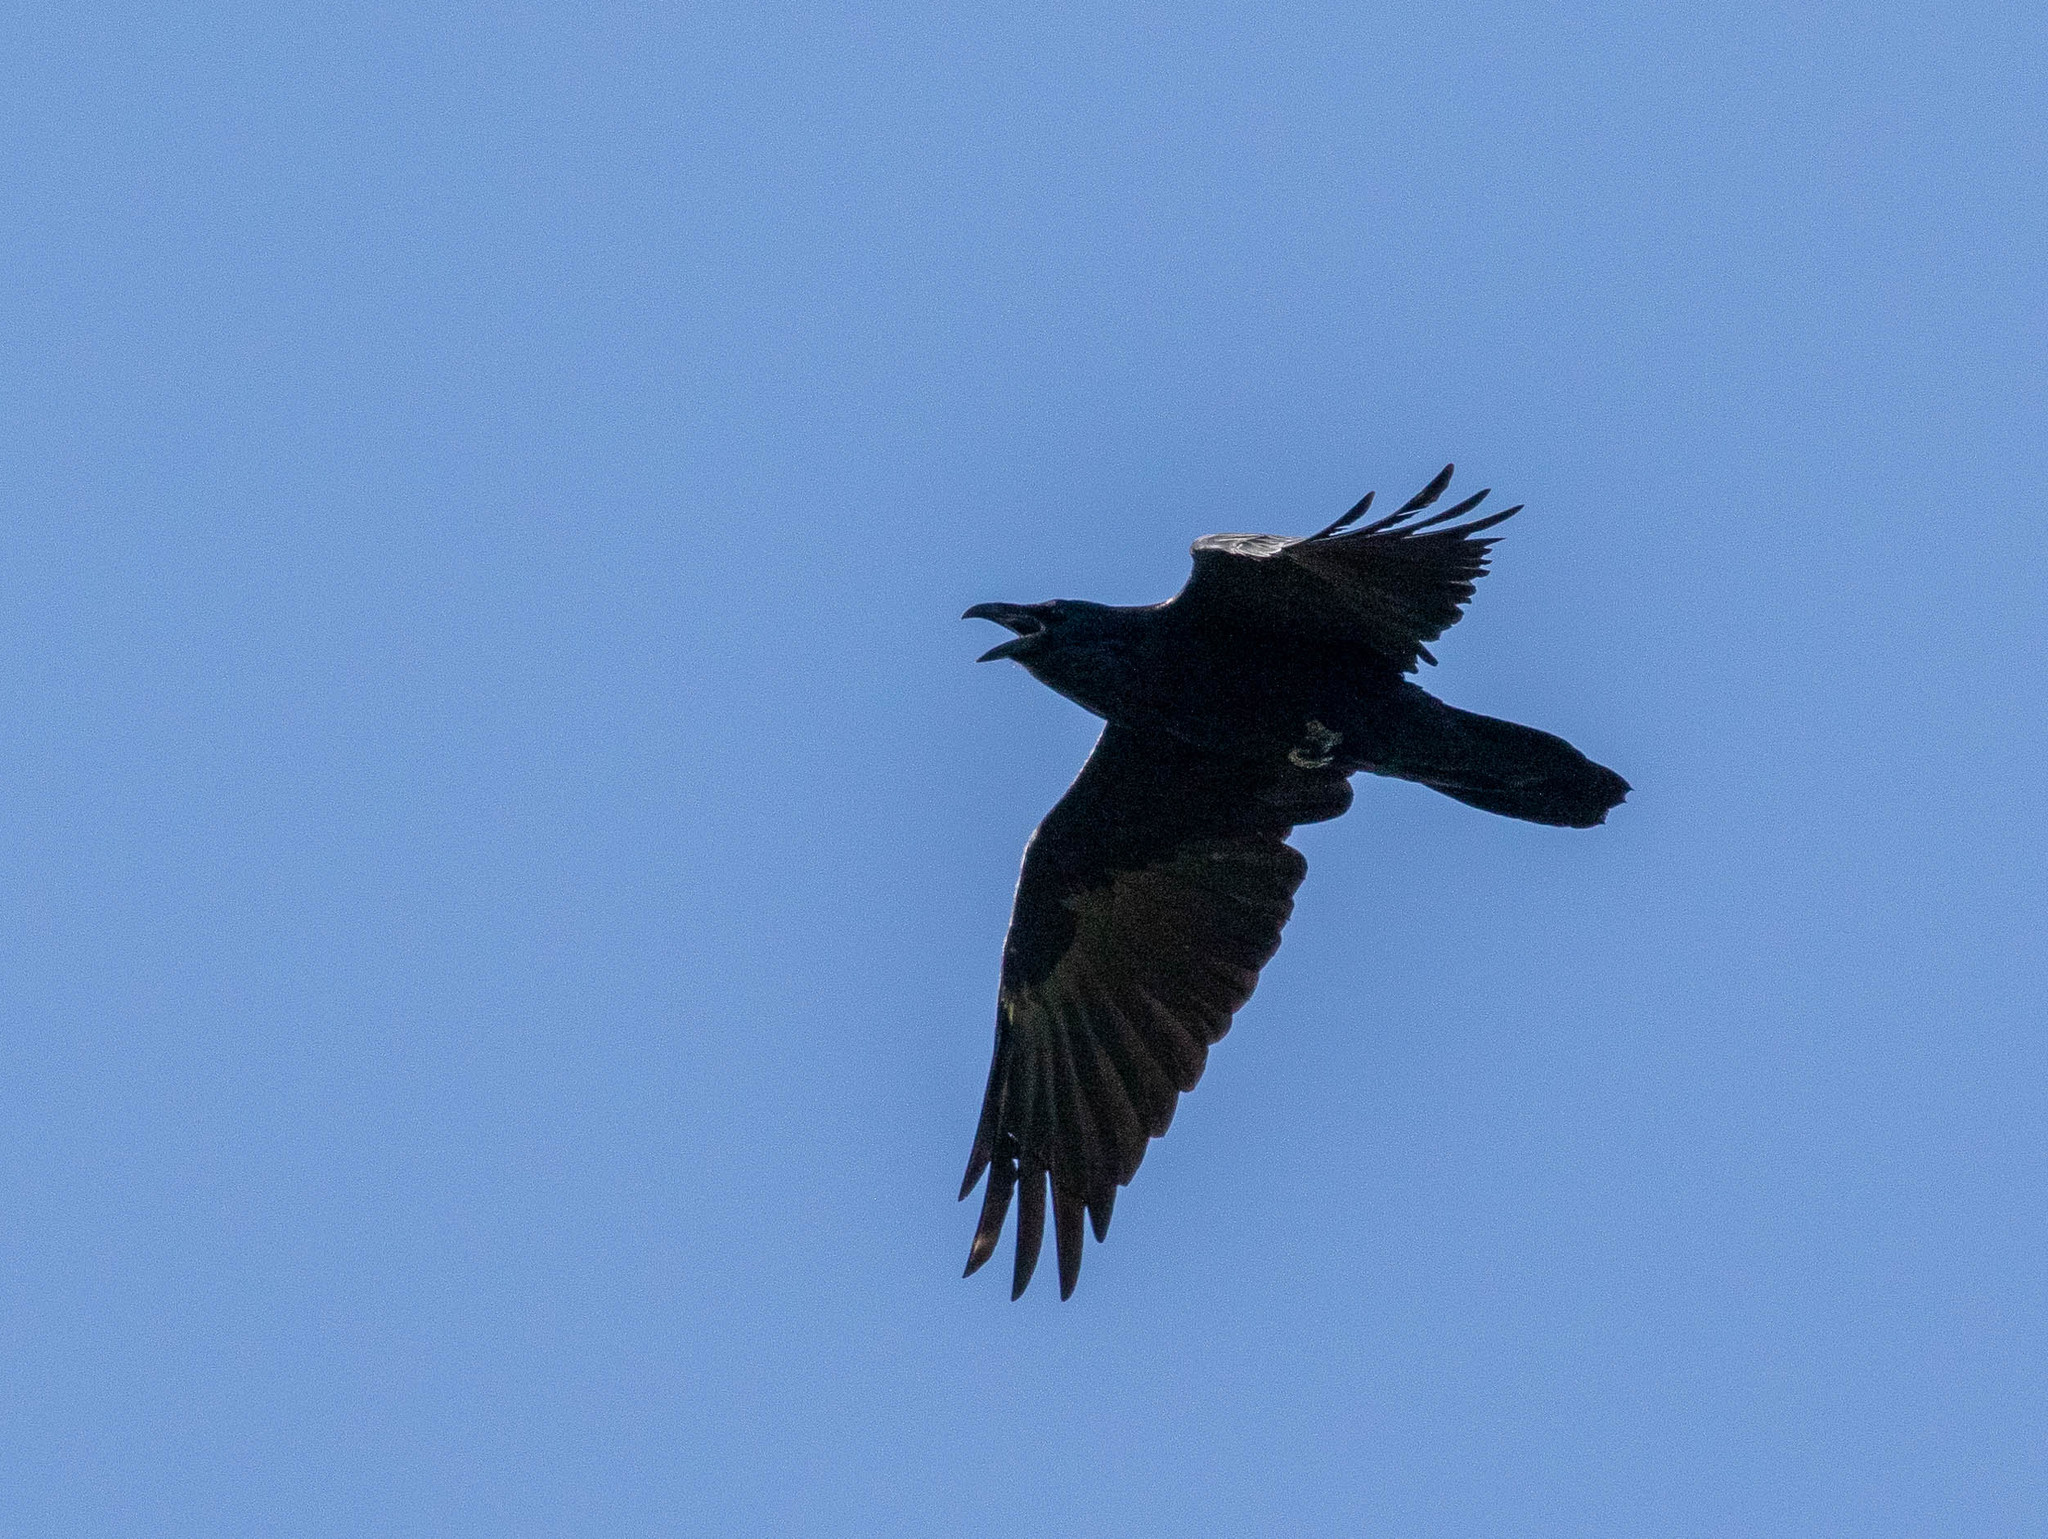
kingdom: Animalia
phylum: Chordata
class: Aves
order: Passeriformes
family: Corvidae
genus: Corvus
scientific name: Corvus corax
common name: Common raven
